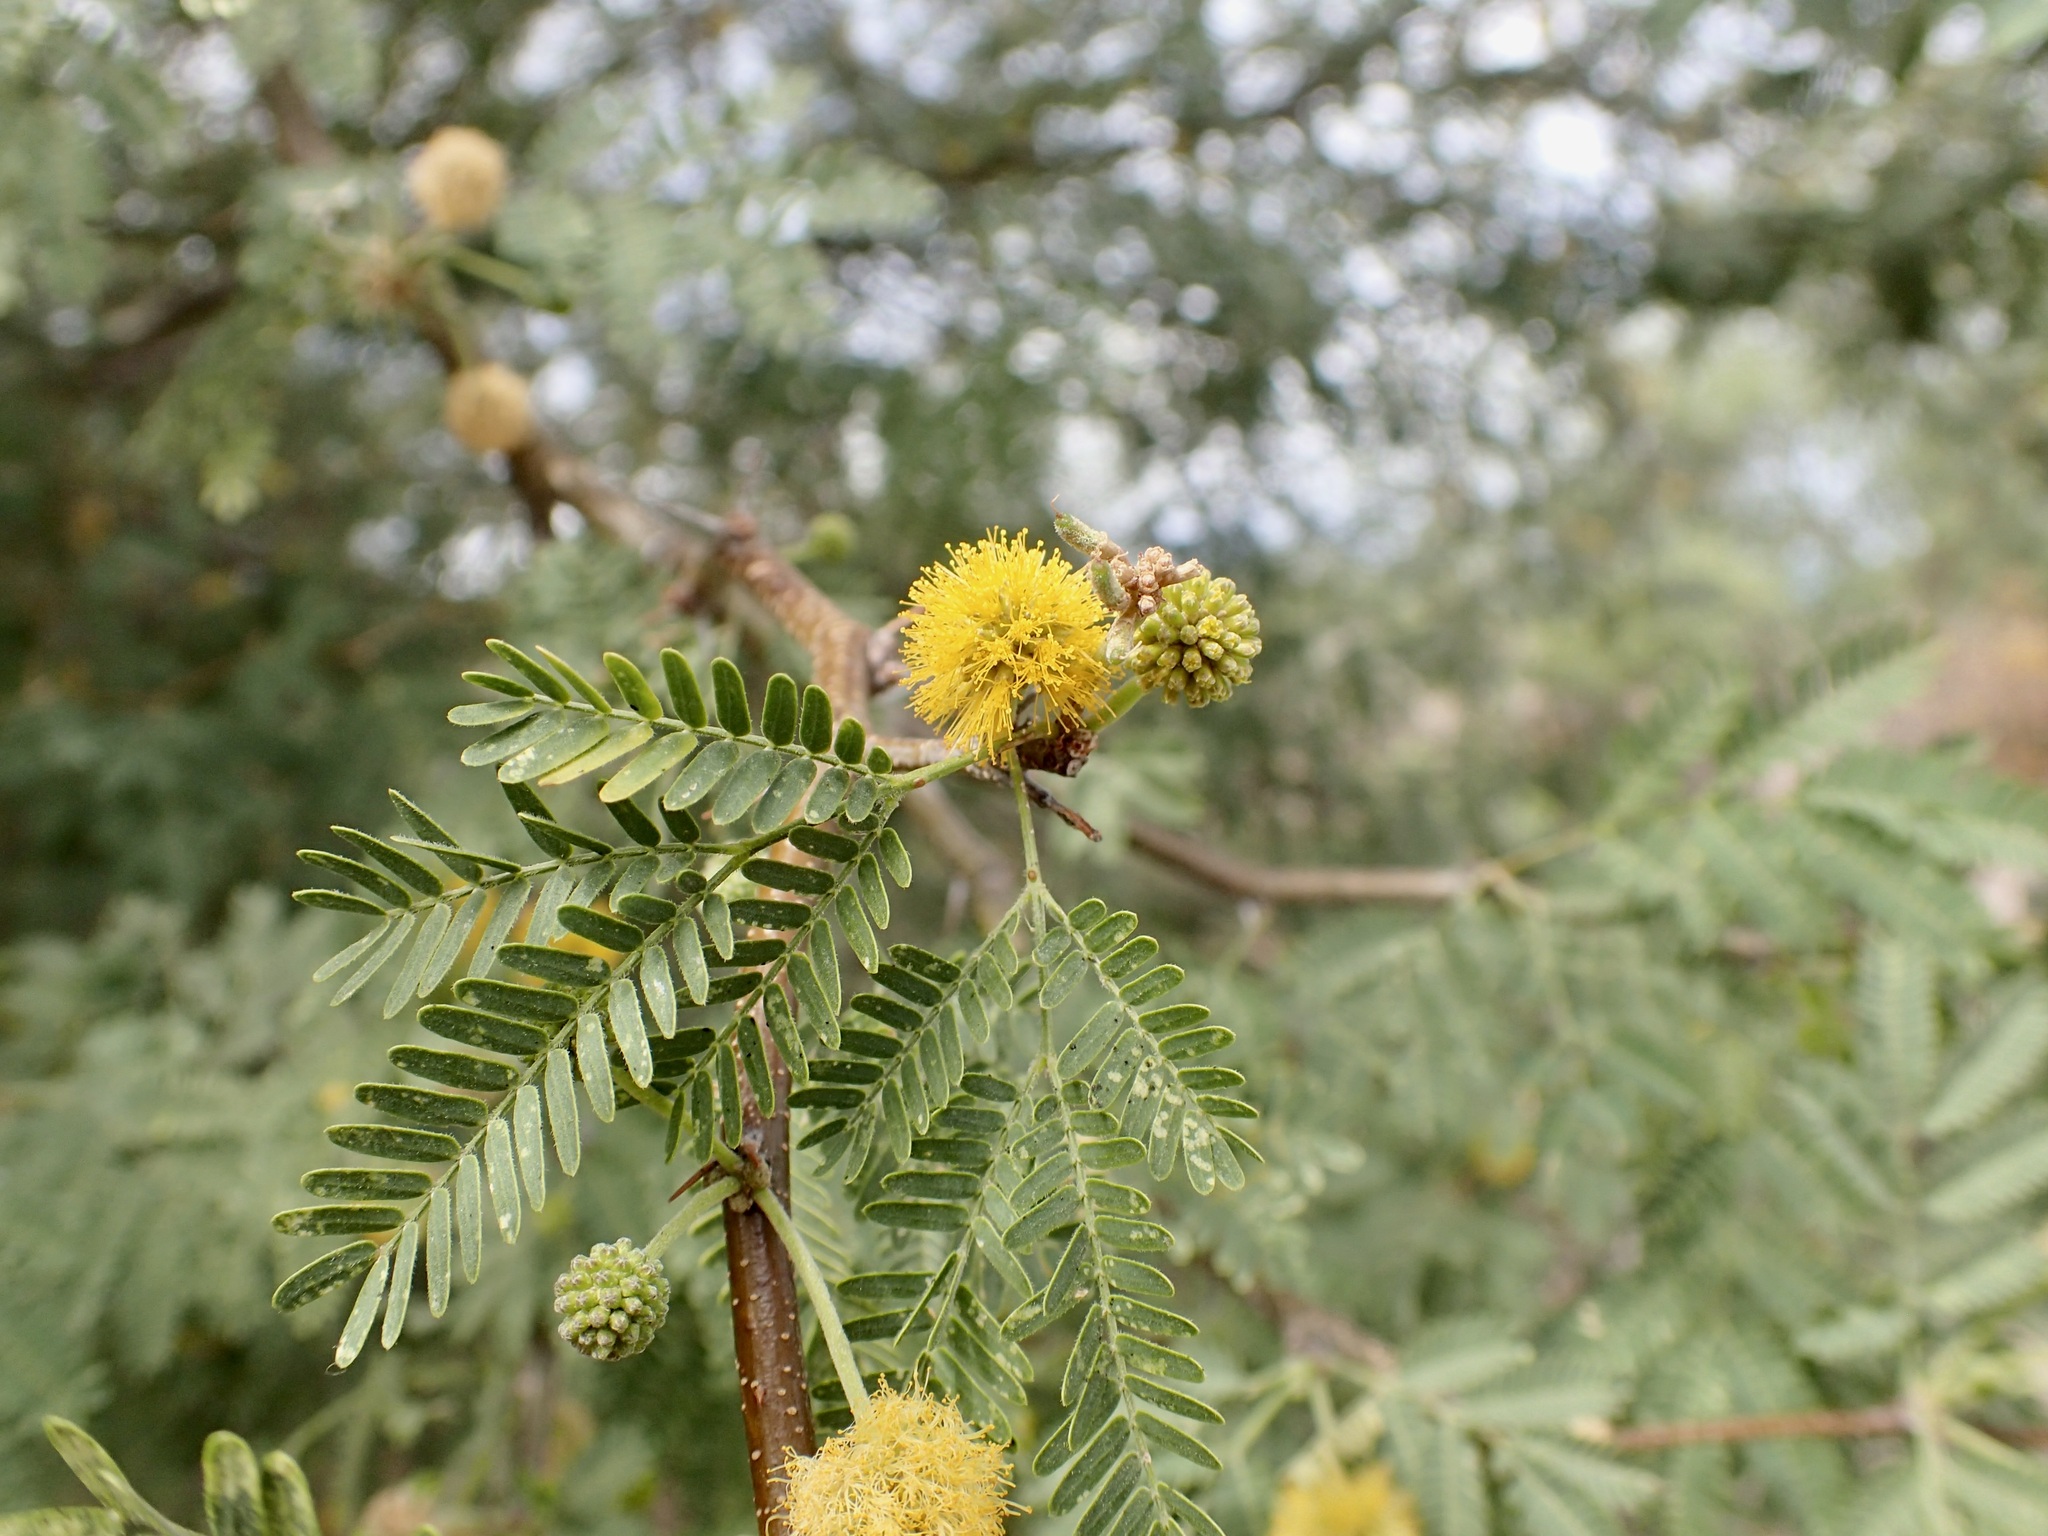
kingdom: Plantae
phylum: Tracheophyta
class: Magnoliopsida
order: Fabales
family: Fabaceae
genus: Vachellia
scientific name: Vachellia farnesiana
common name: Sweet acacia
